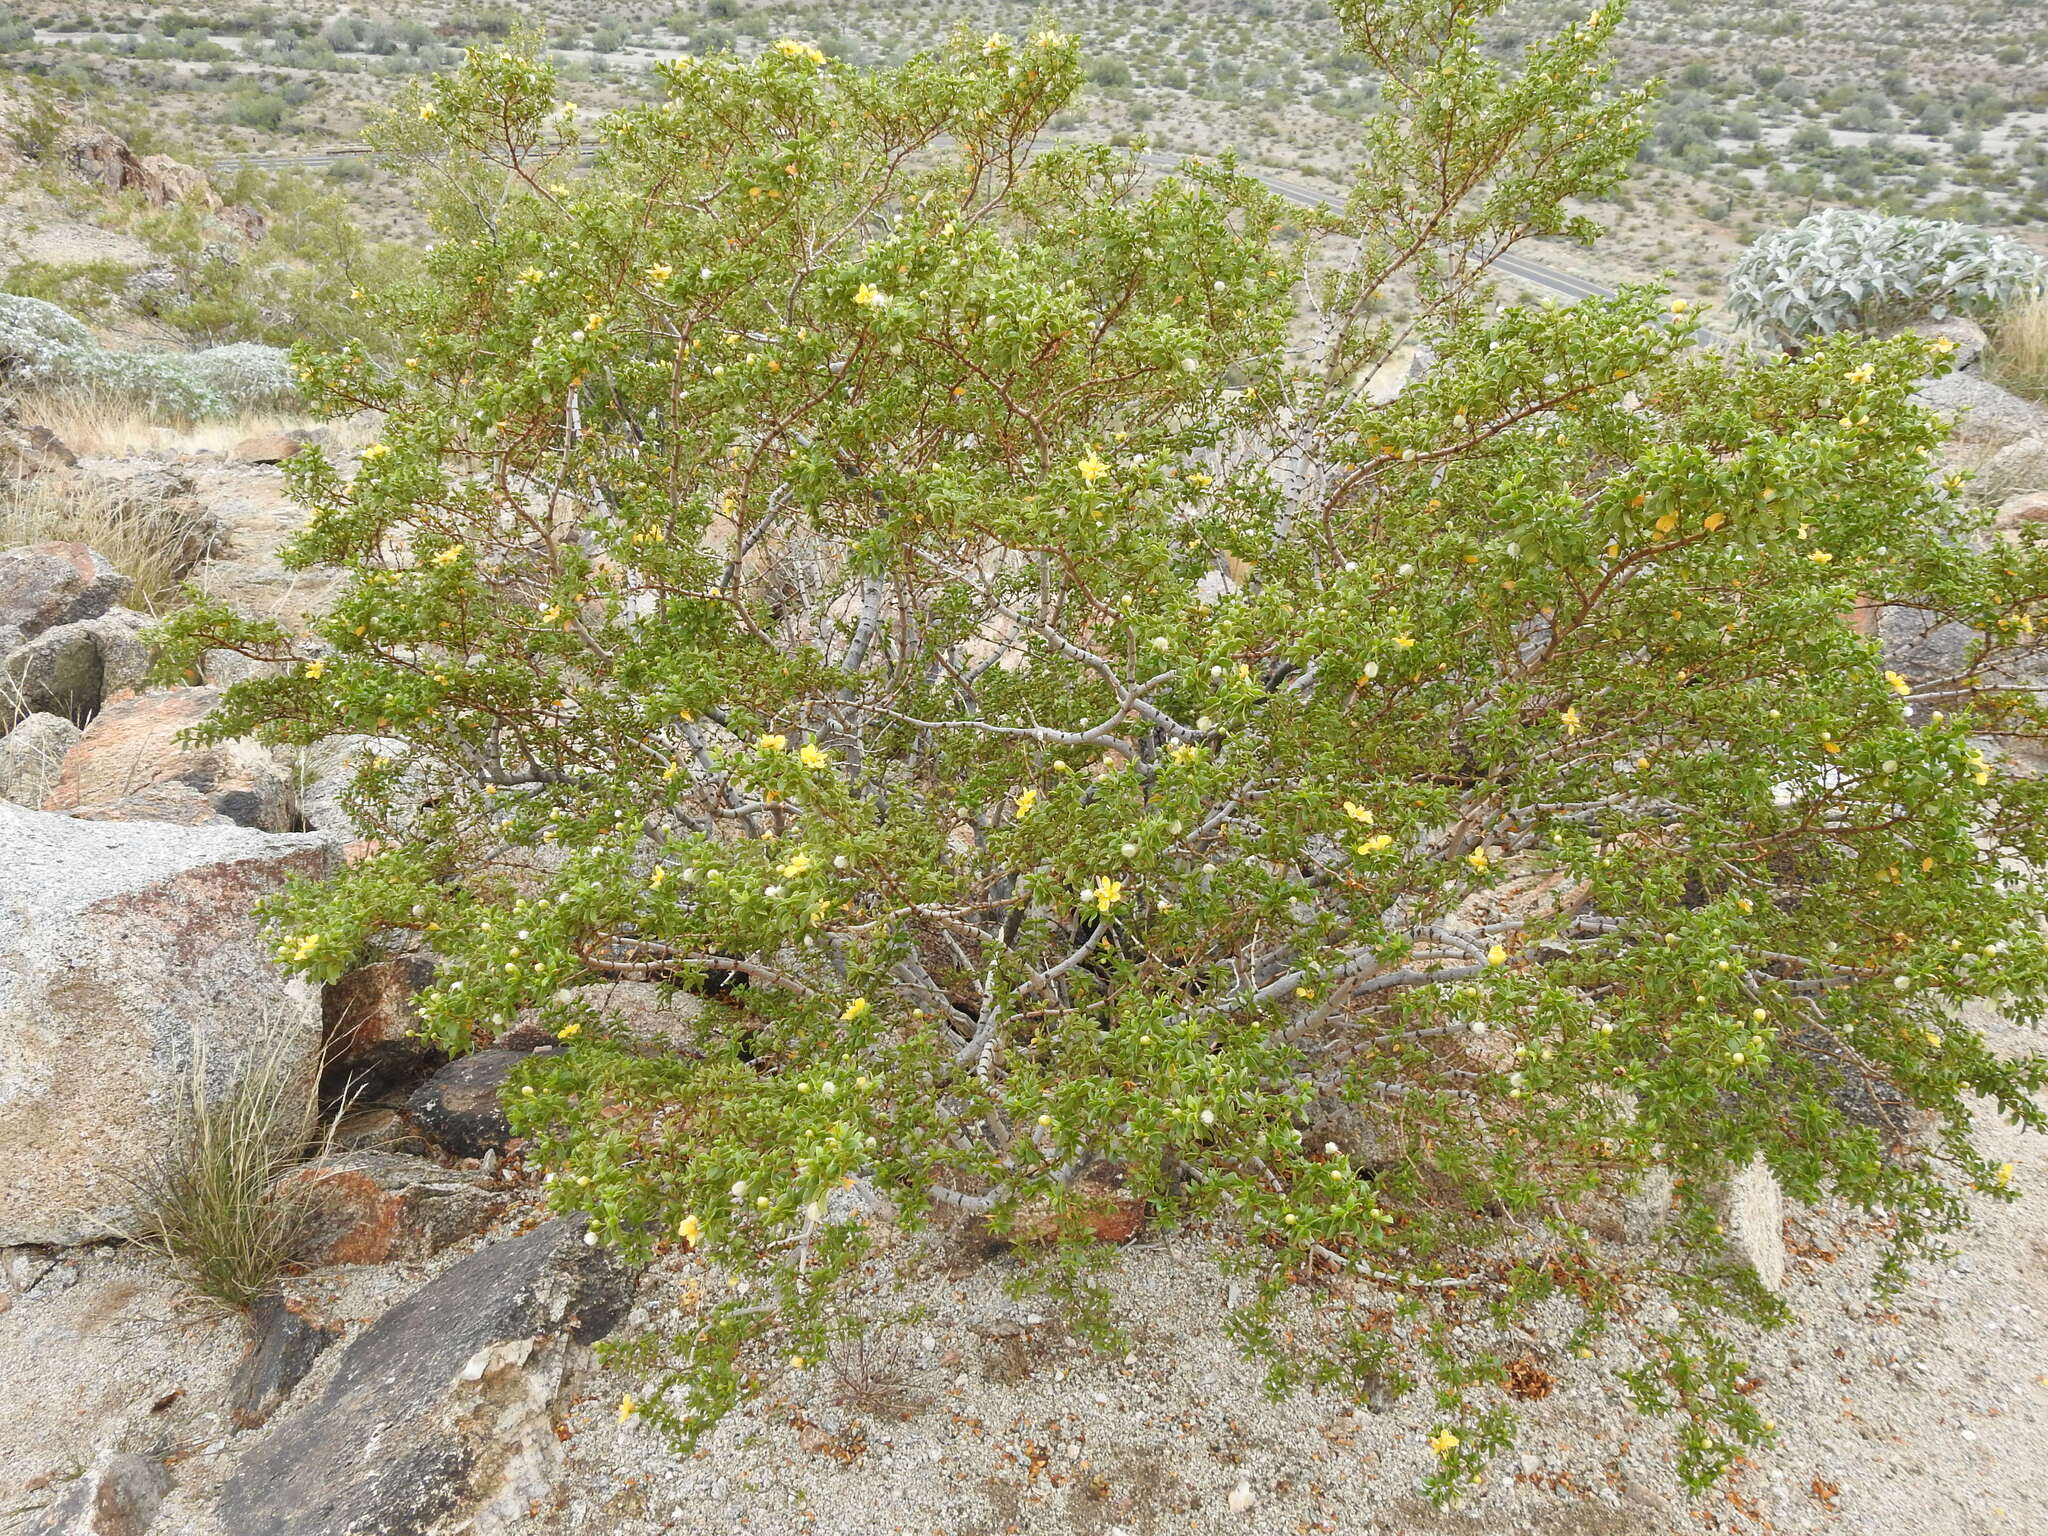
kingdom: Plantae
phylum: Tracheophyta
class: Magnoliopsida
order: Zygophyllales
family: Zygophyllaceae
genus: Larrea
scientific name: Larrea tridentata
